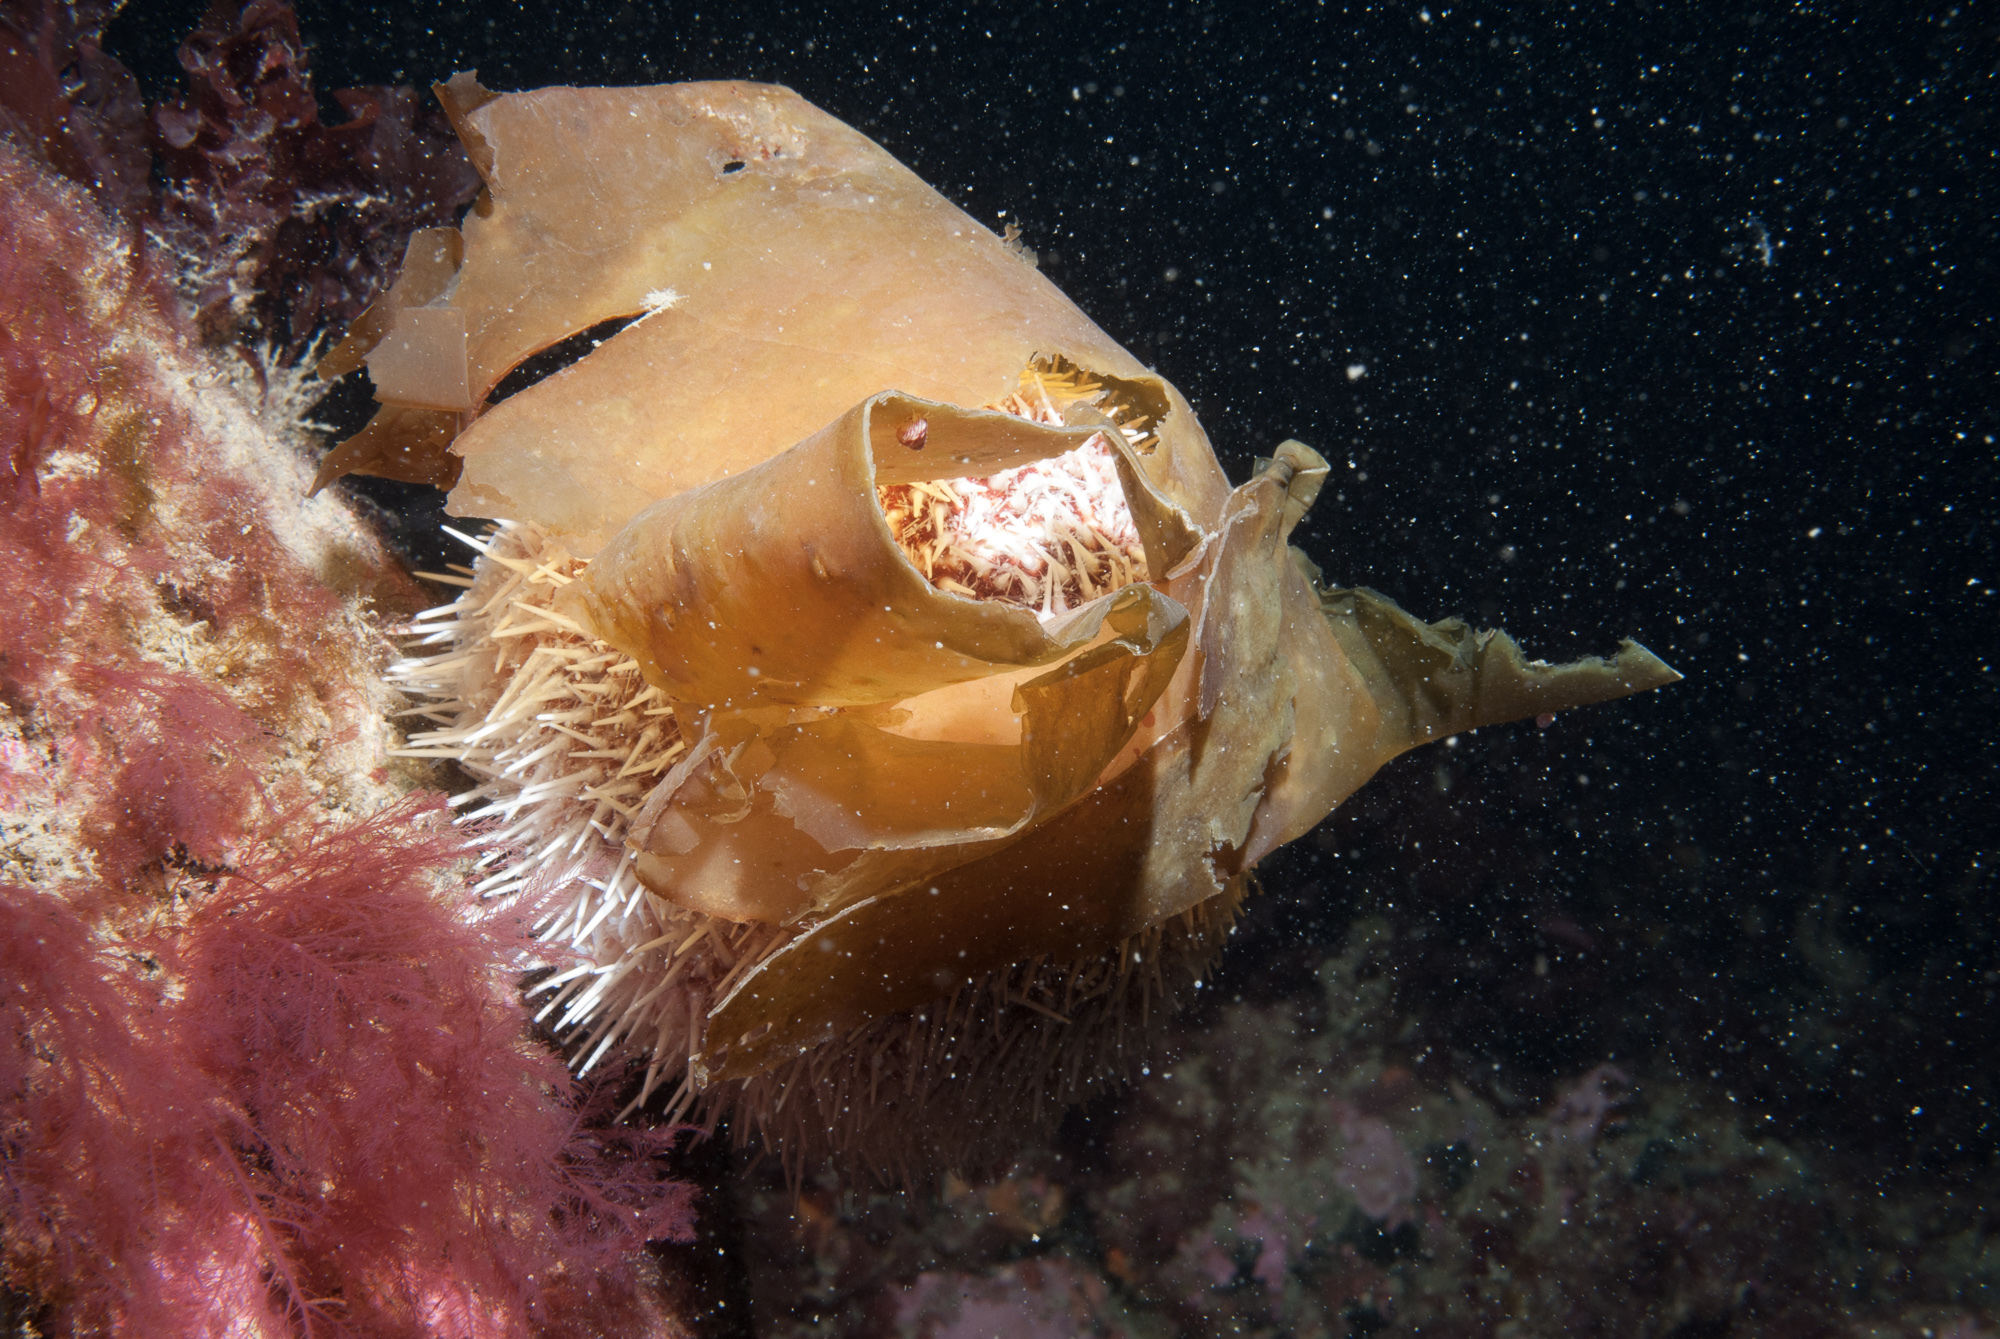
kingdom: Animalia
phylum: Echinodermata
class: Echinoidea
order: Camarodonta
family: Echinidae
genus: Echinus
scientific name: Echinus esculentus
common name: Edible sea urchin
